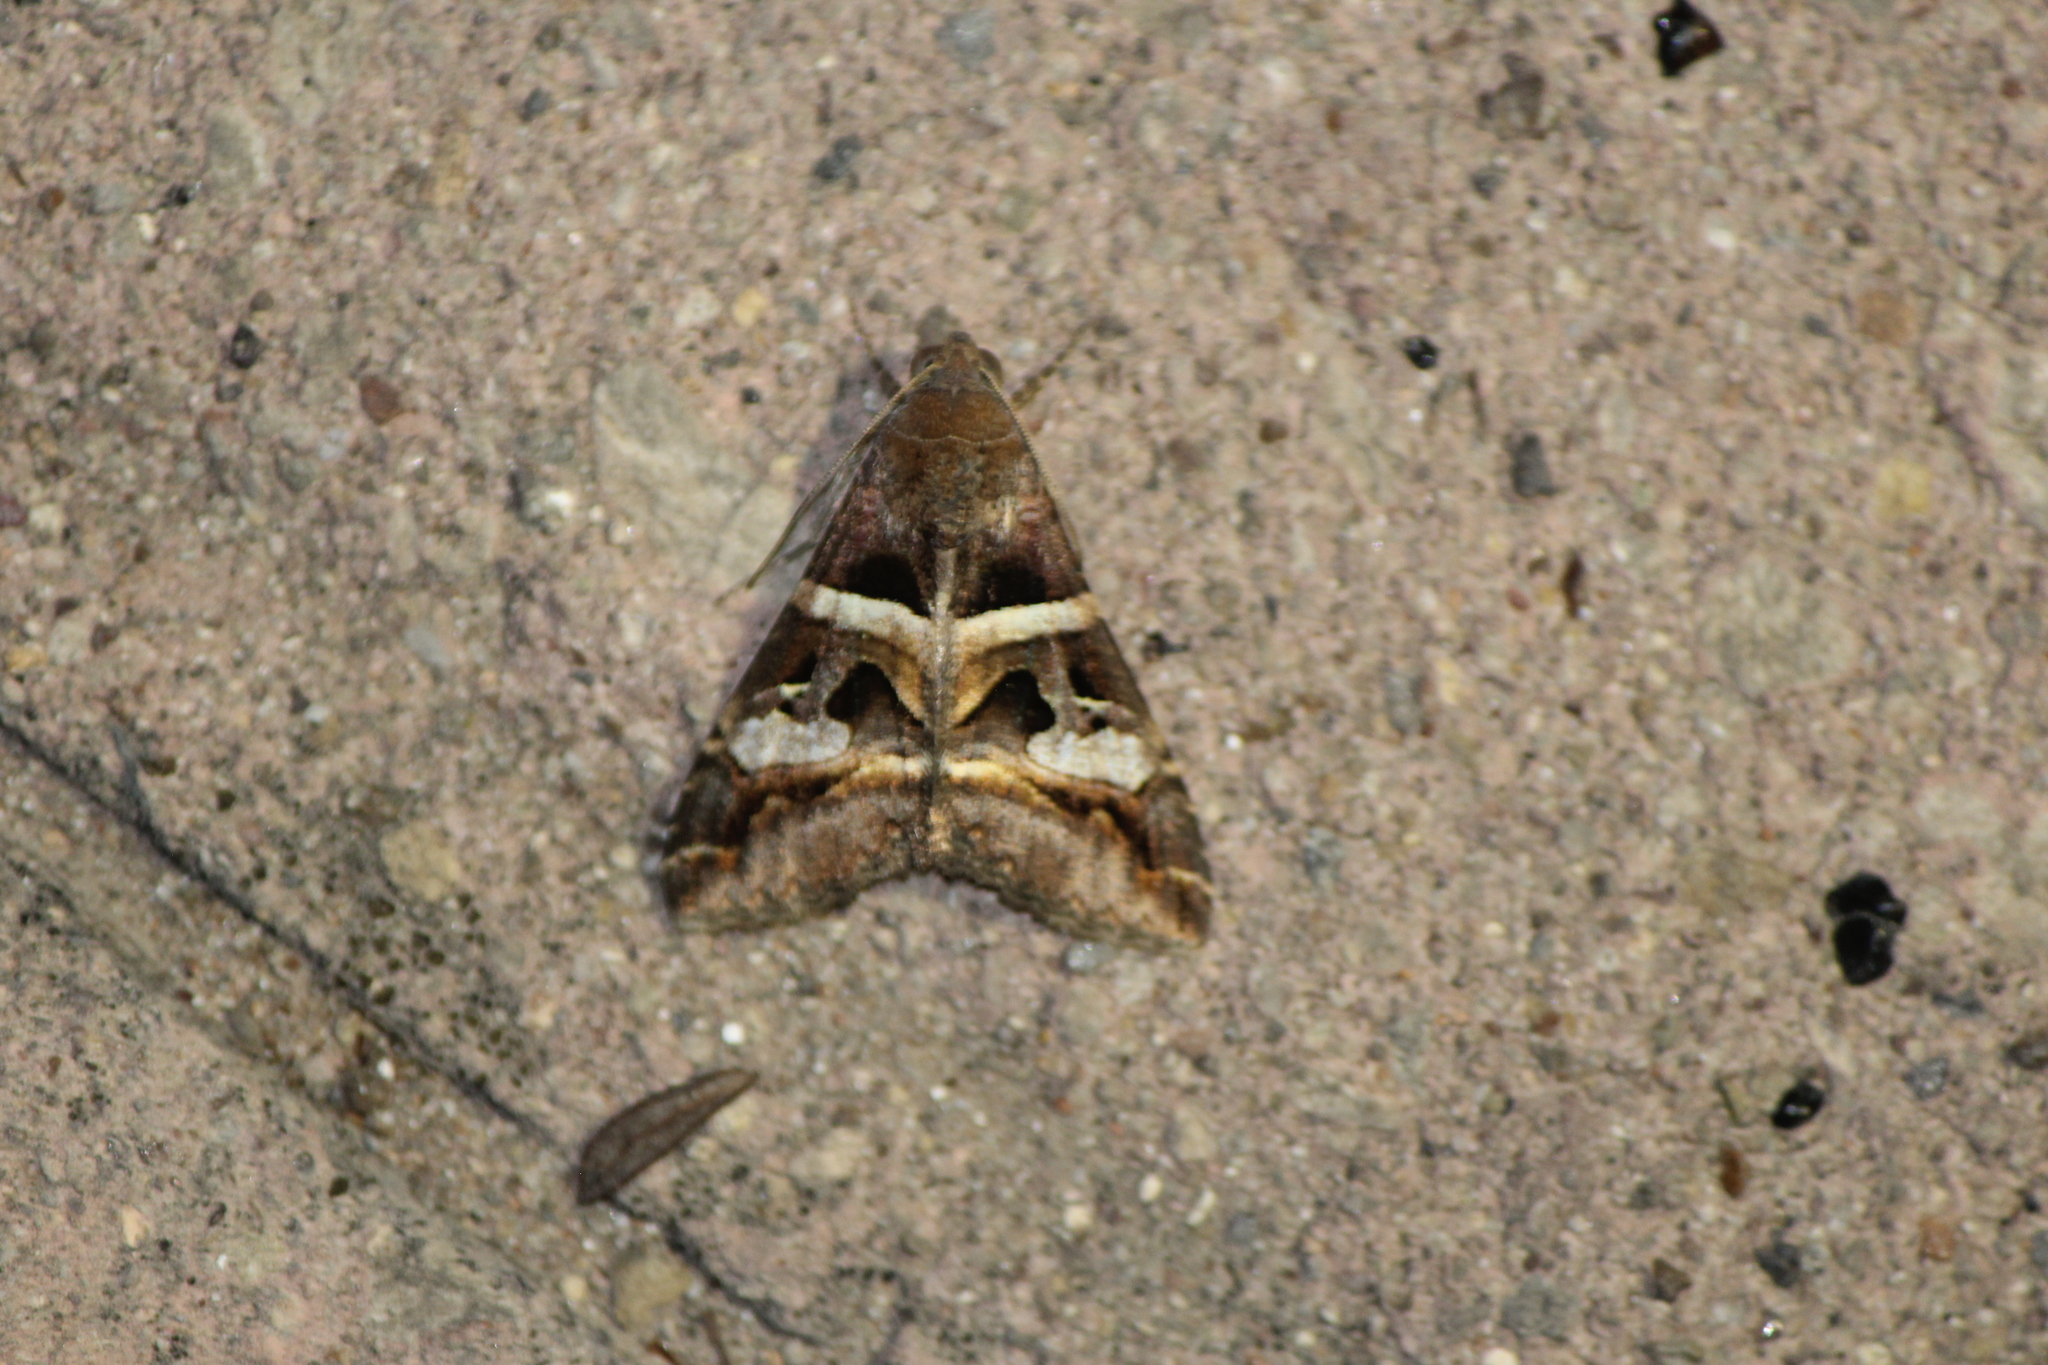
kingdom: Animalia
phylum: Arthropoda
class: Insecta
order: Lepidoptera
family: Erebidae
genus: Melipotis
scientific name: Melipotis perpendicularis
